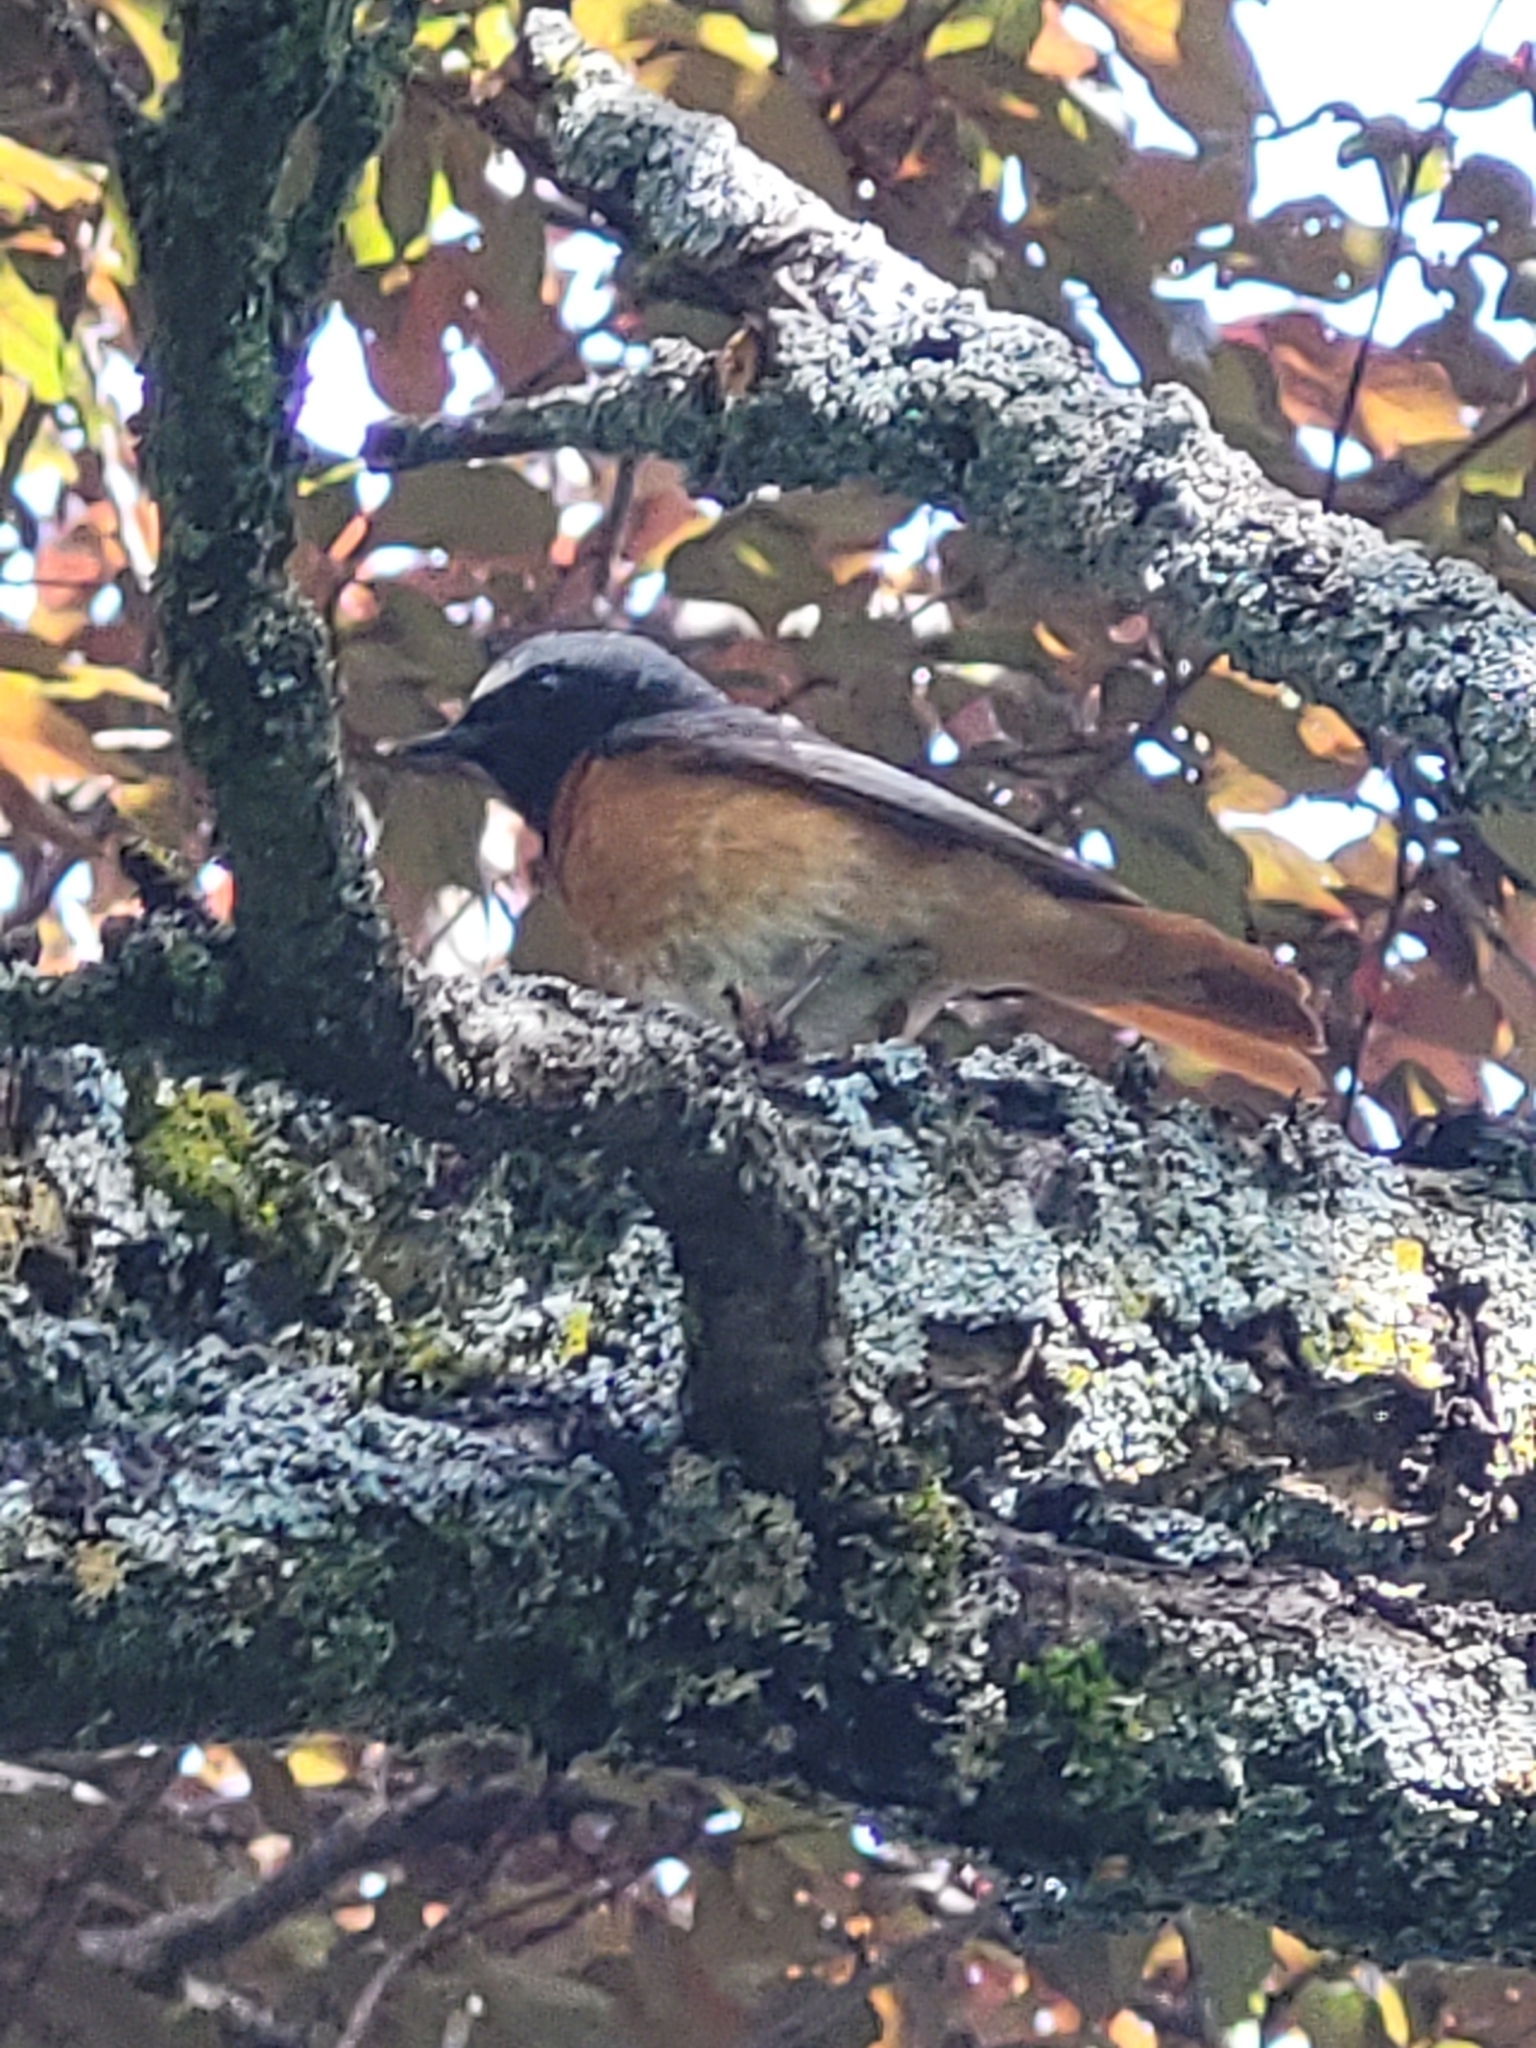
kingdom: Animalia
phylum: Chordata
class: Aves
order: Passeriformes
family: Muscicapidae
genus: Phoenicurus
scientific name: Phoenicurus phoenicurus
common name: Common redstart
